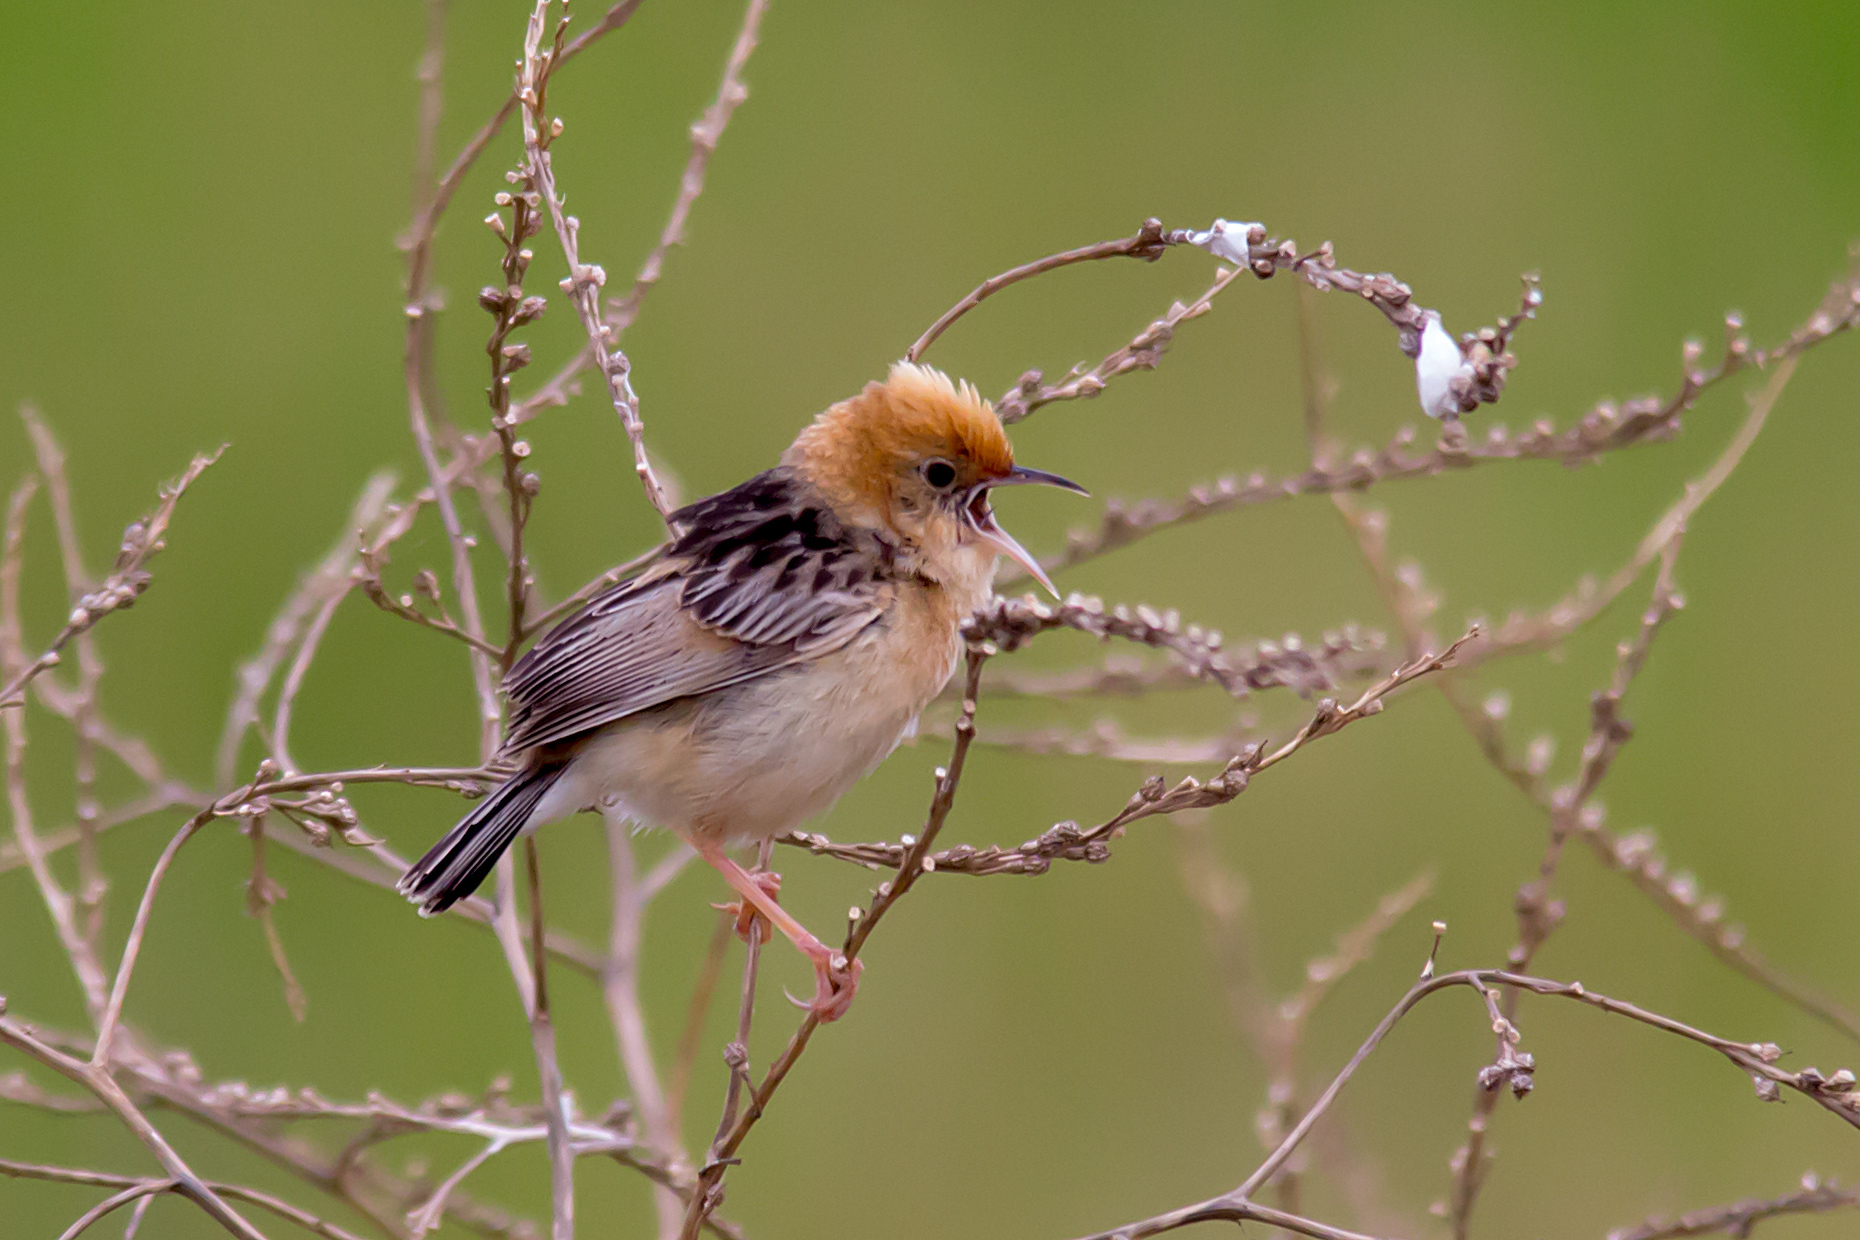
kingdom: Animalia
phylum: Chordata
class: Aves
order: Passeriformes
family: Cisticolidae
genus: Cisticola
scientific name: Cisticola exilis
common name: Golden-headed cisticola
